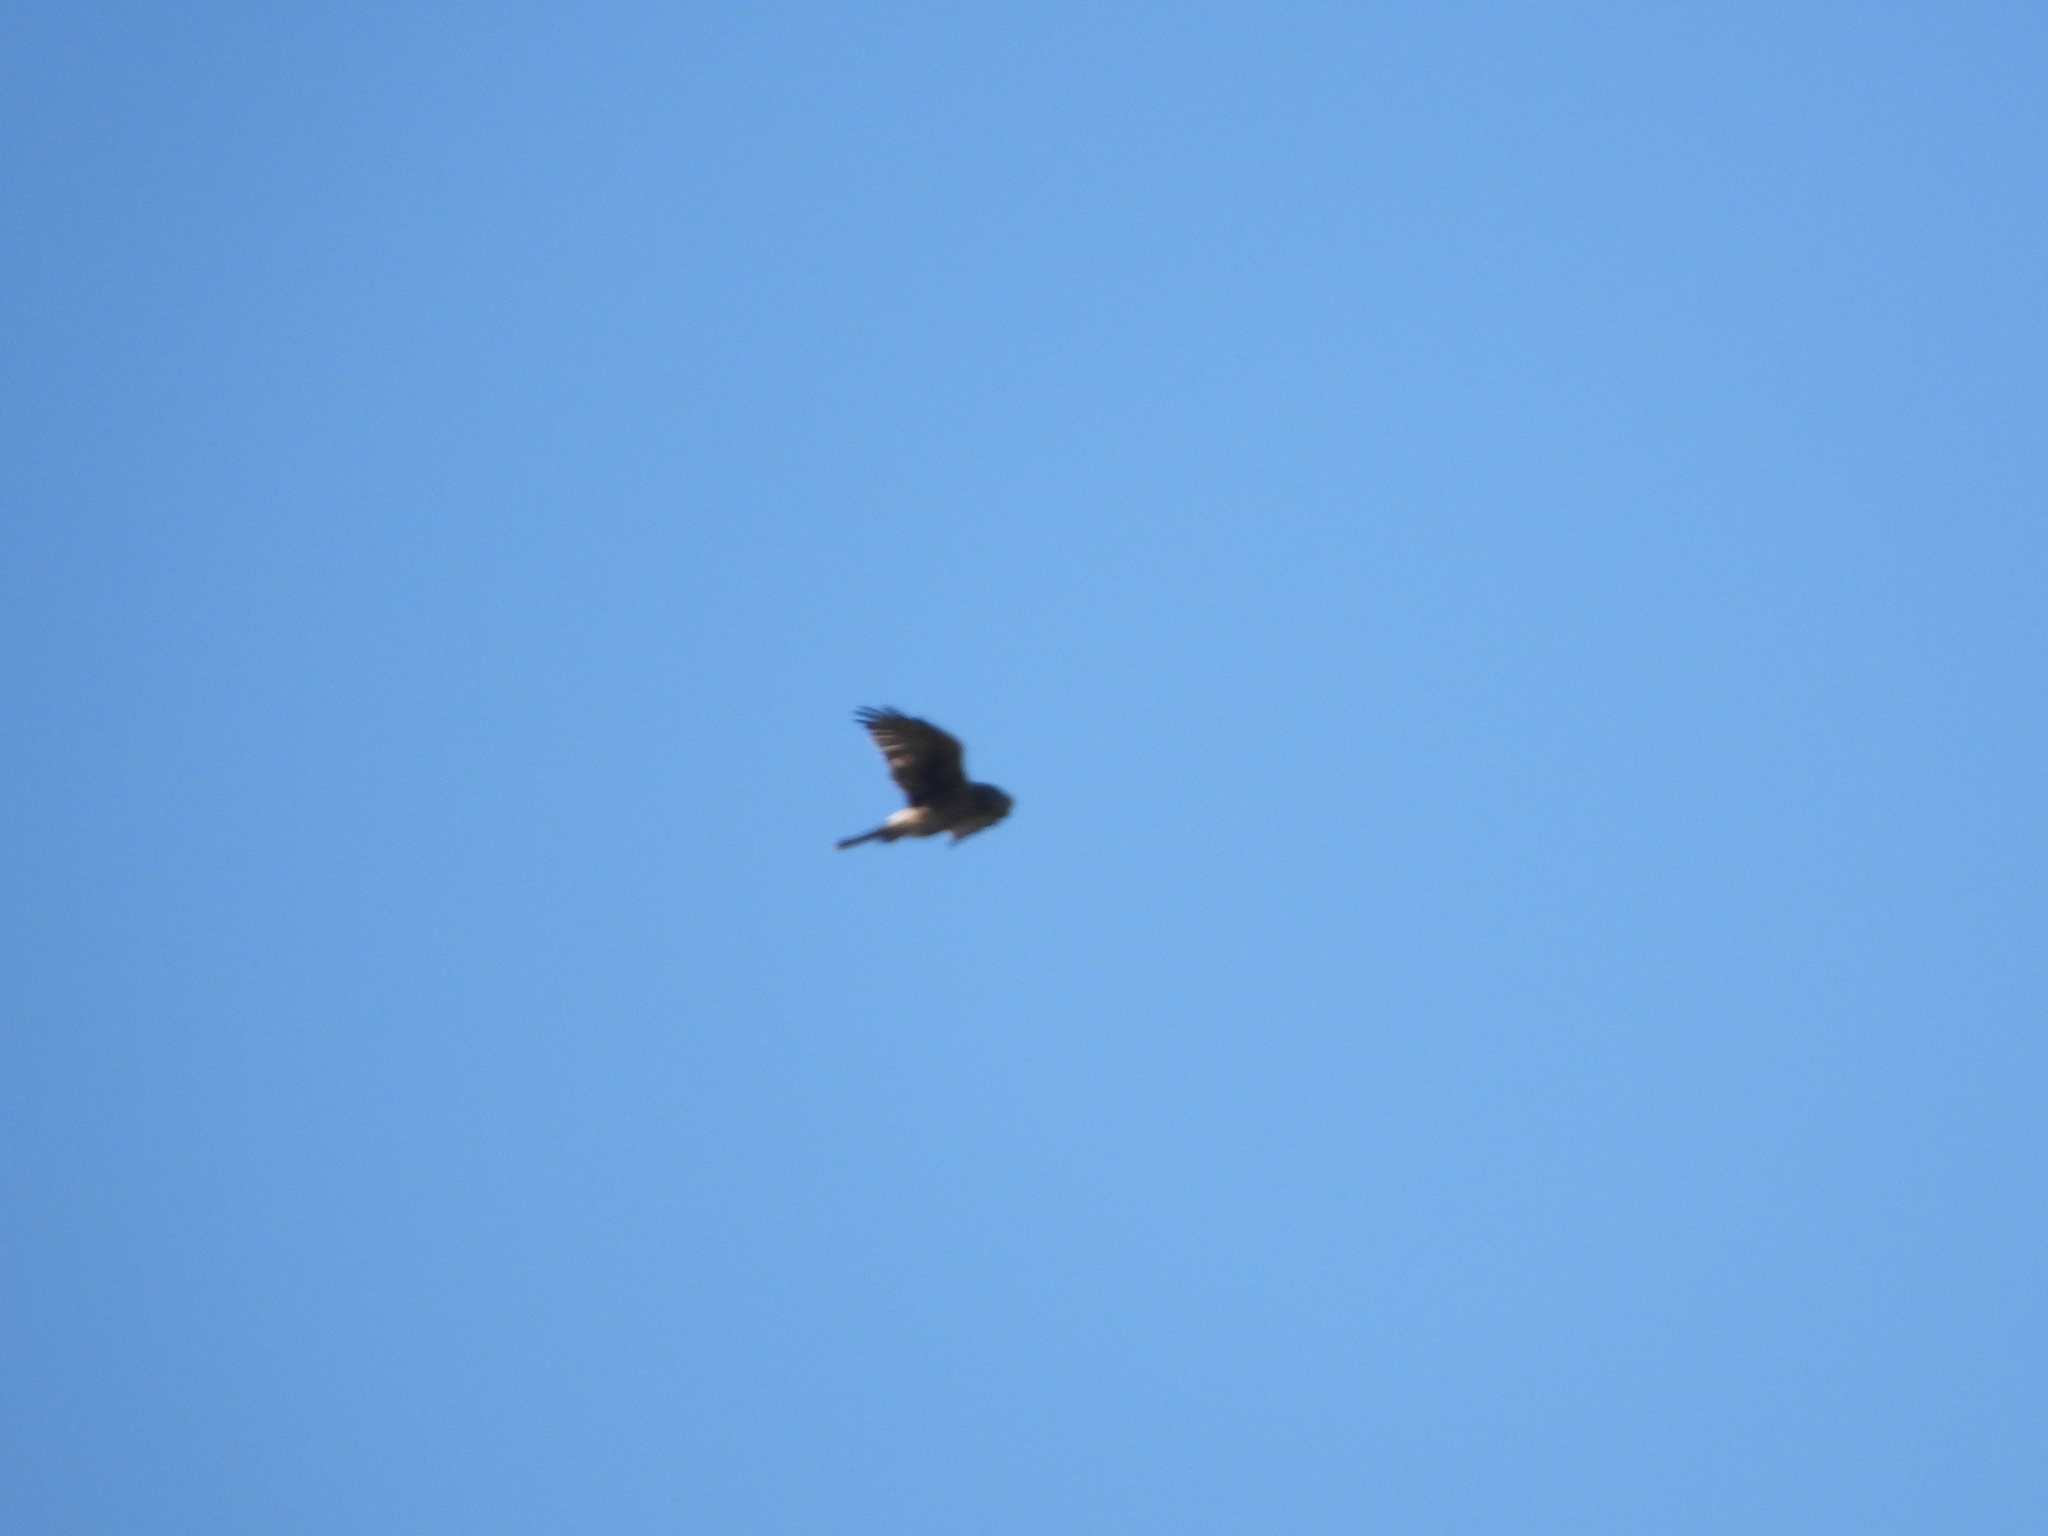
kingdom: Animalia
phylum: Chordata
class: Aves
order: Accipitriformes
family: Accipitridae
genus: Circus
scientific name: Circus cyaneus
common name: Hen harrier
